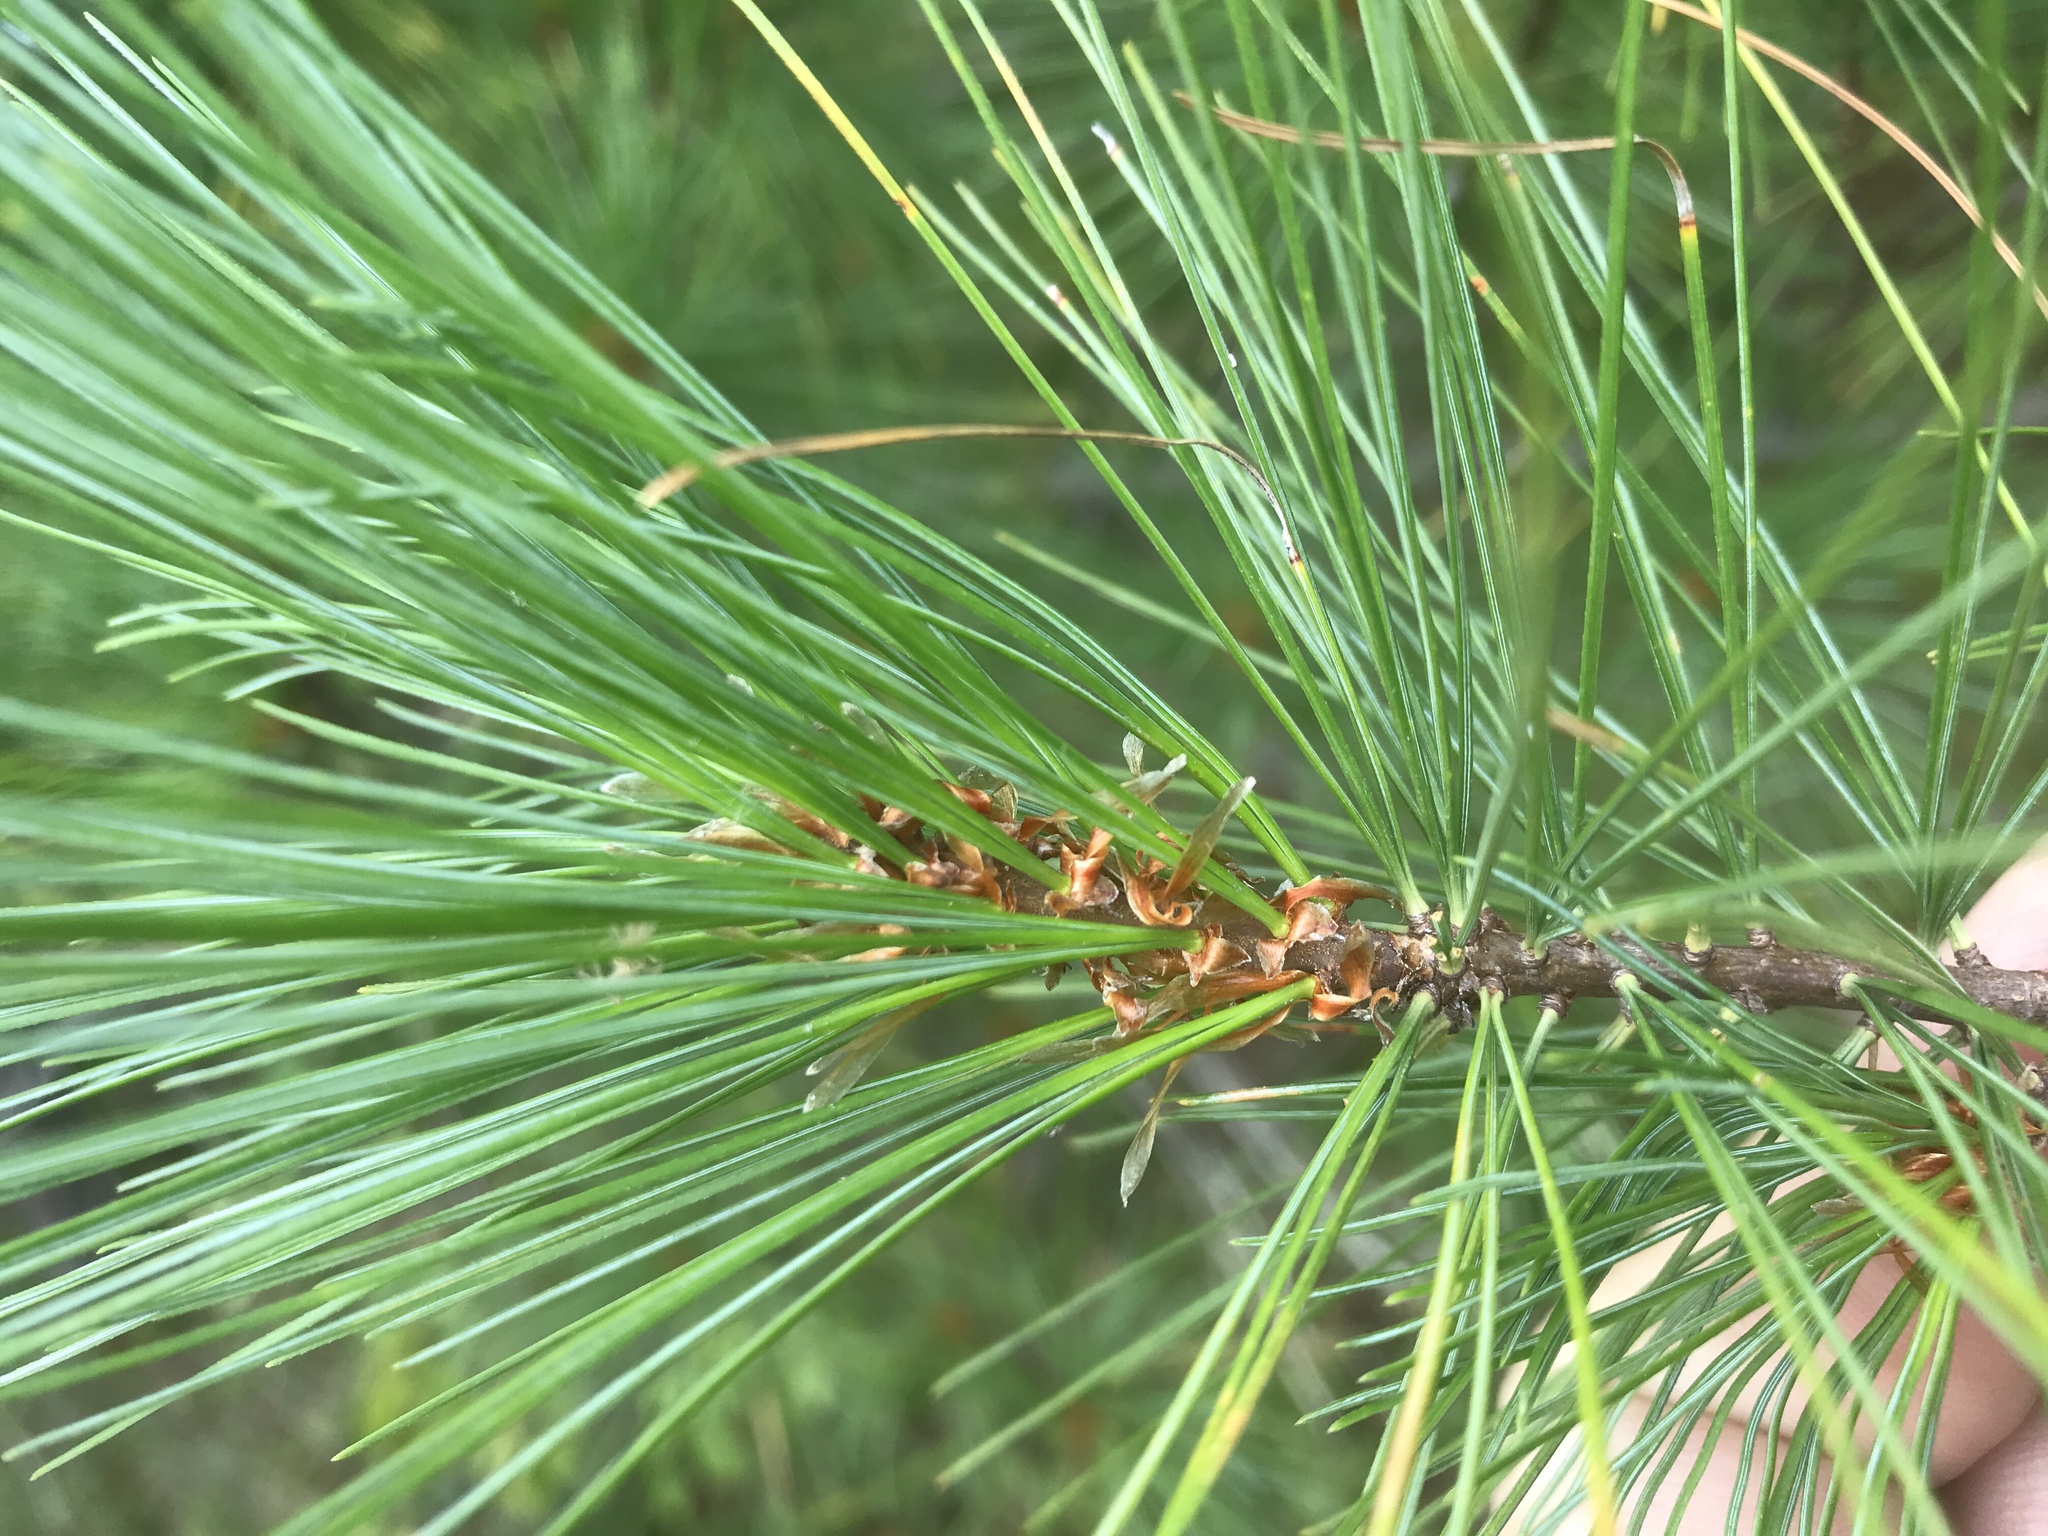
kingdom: Plantae
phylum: Tracheophyta
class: Pinopsida
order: Pinales
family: Pinaceae
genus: Pinus
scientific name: Pinus strobus
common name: Weymouth pine
